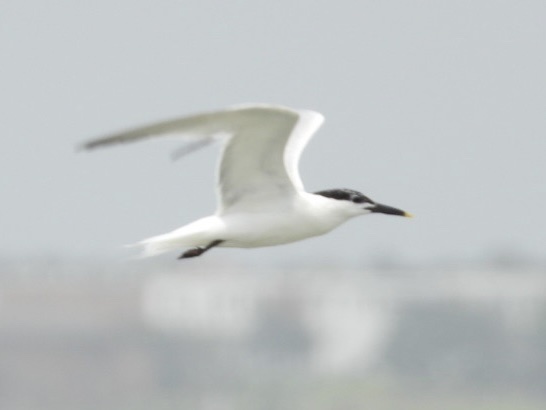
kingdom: Animalia
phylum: Chordata
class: Aves
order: Charadriiformes
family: Laridae
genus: Thalasseus
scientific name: Thalasseus sandvicensis
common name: Sandwich tern
